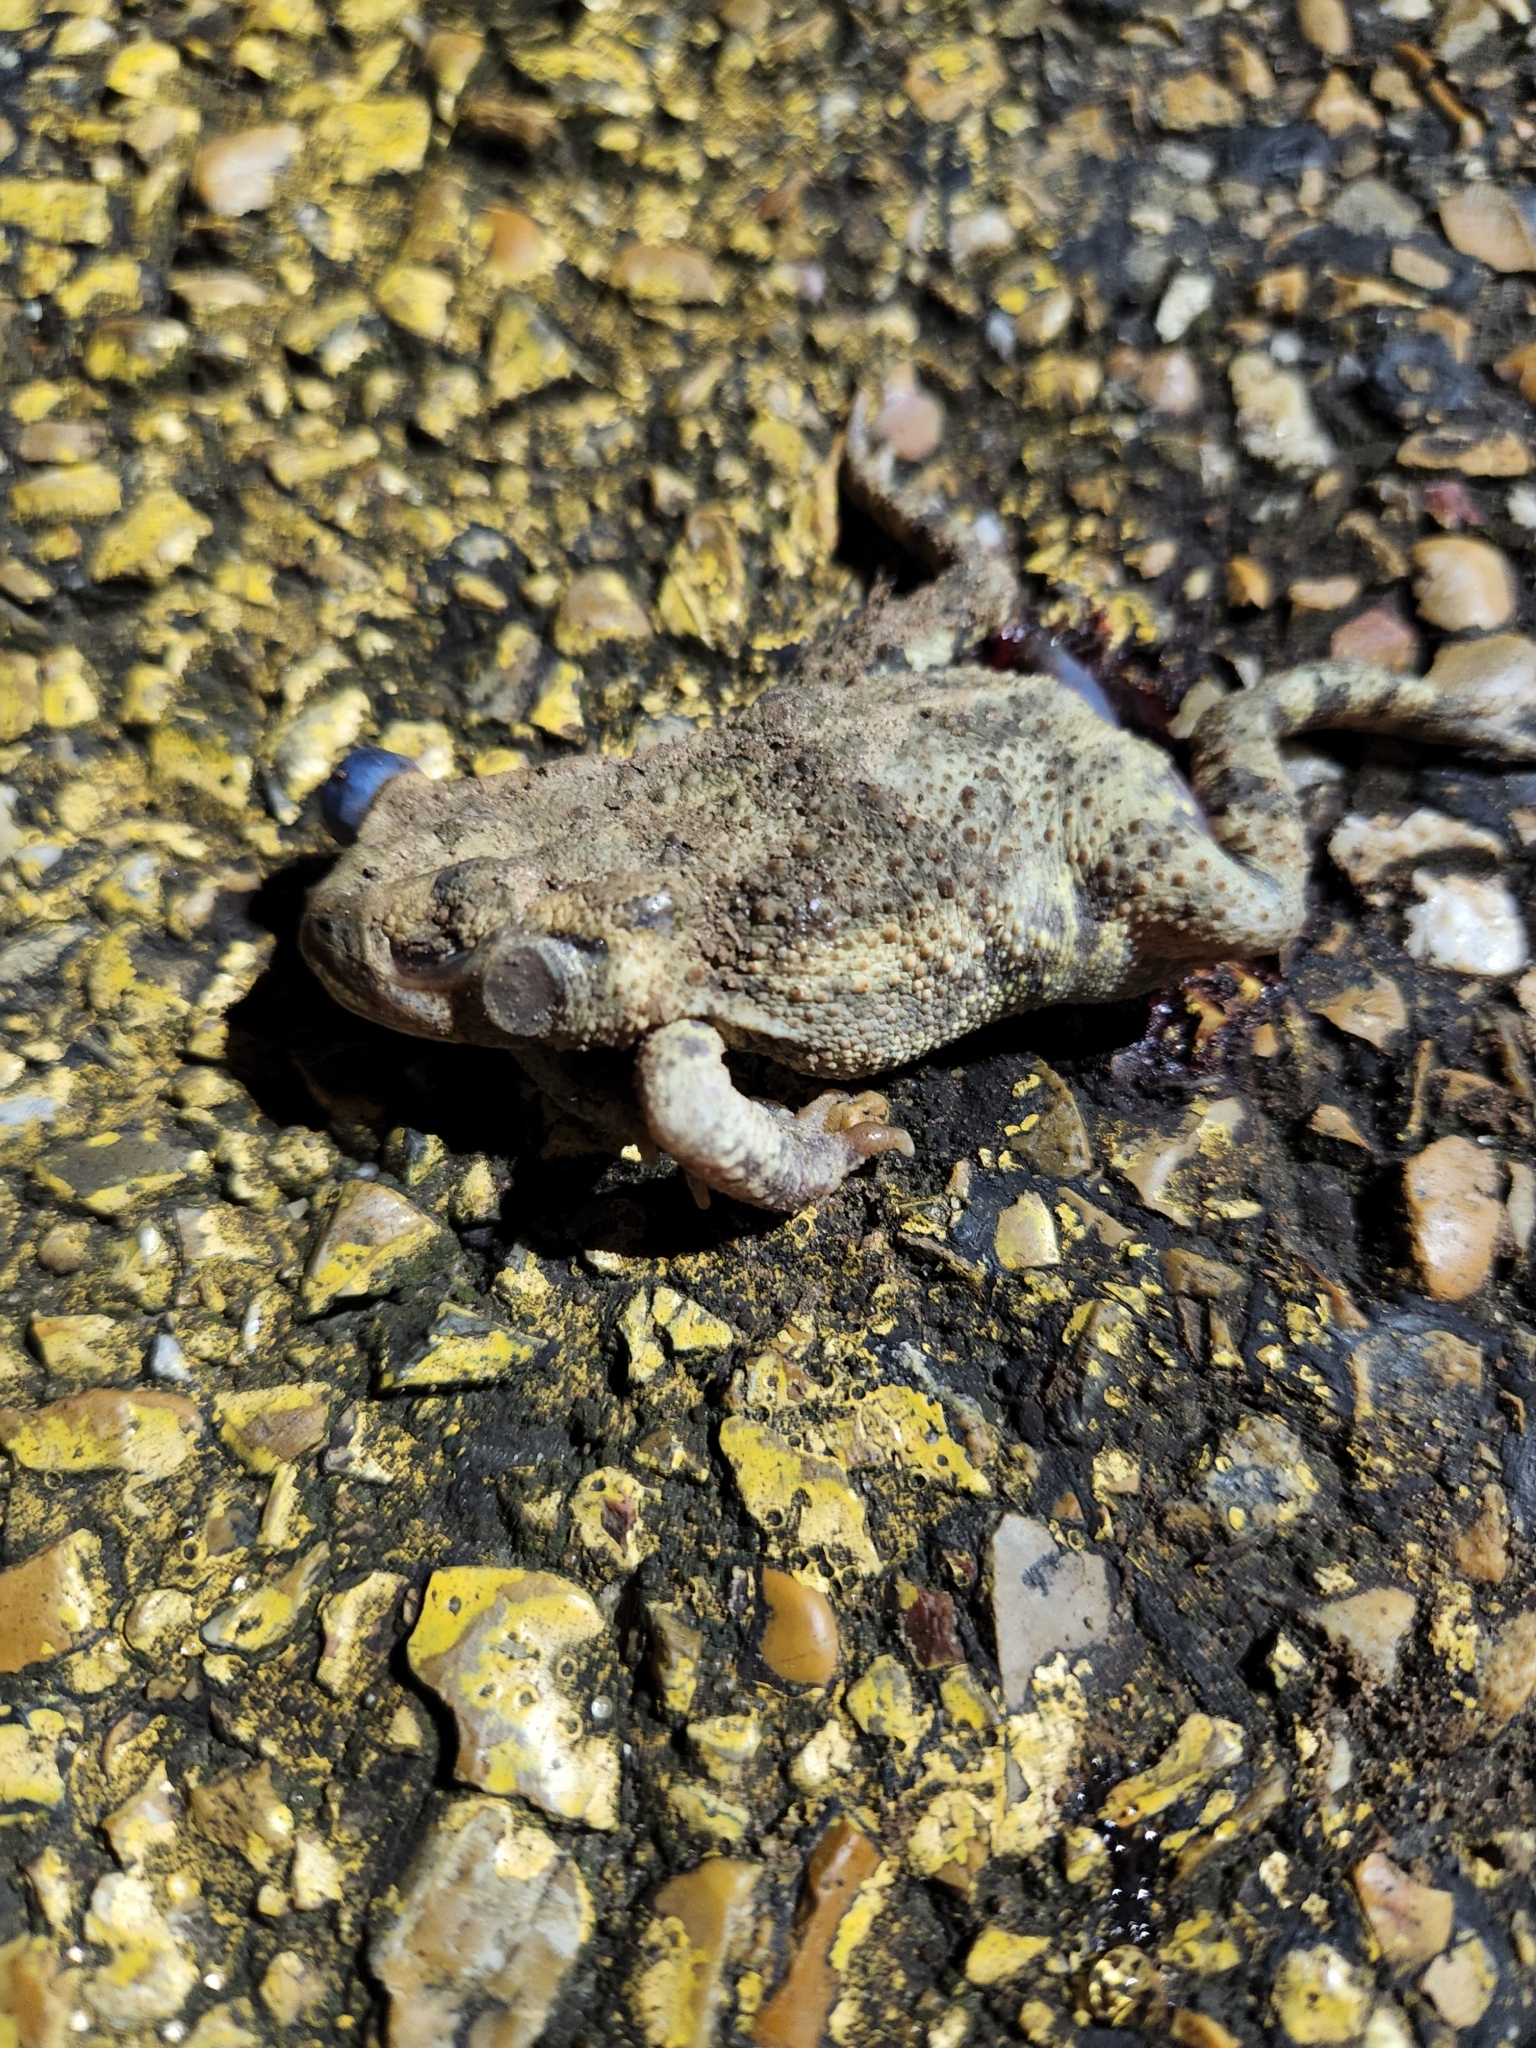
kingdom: Animalia
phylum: Chordata
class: Amphibia
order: Anura
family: Bufonidae
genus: Anaxyrus
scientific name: Anaxyrus fowleri
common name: Fowler's toad
